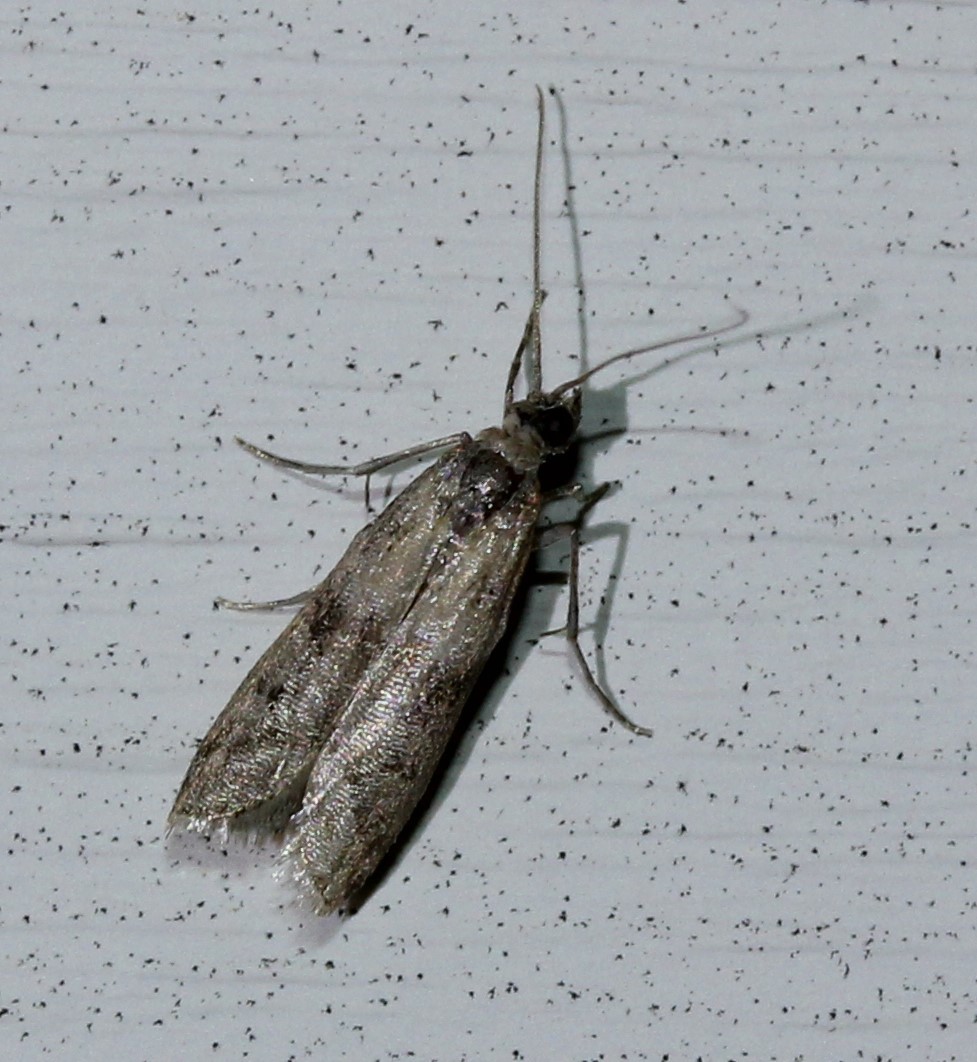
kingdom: Animalia
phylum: Arthropoda
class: Insecta
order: Lepidoptera
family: Pyralidae
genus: Plodia
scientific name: Plodia interpunctella
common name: Indian meal moth
